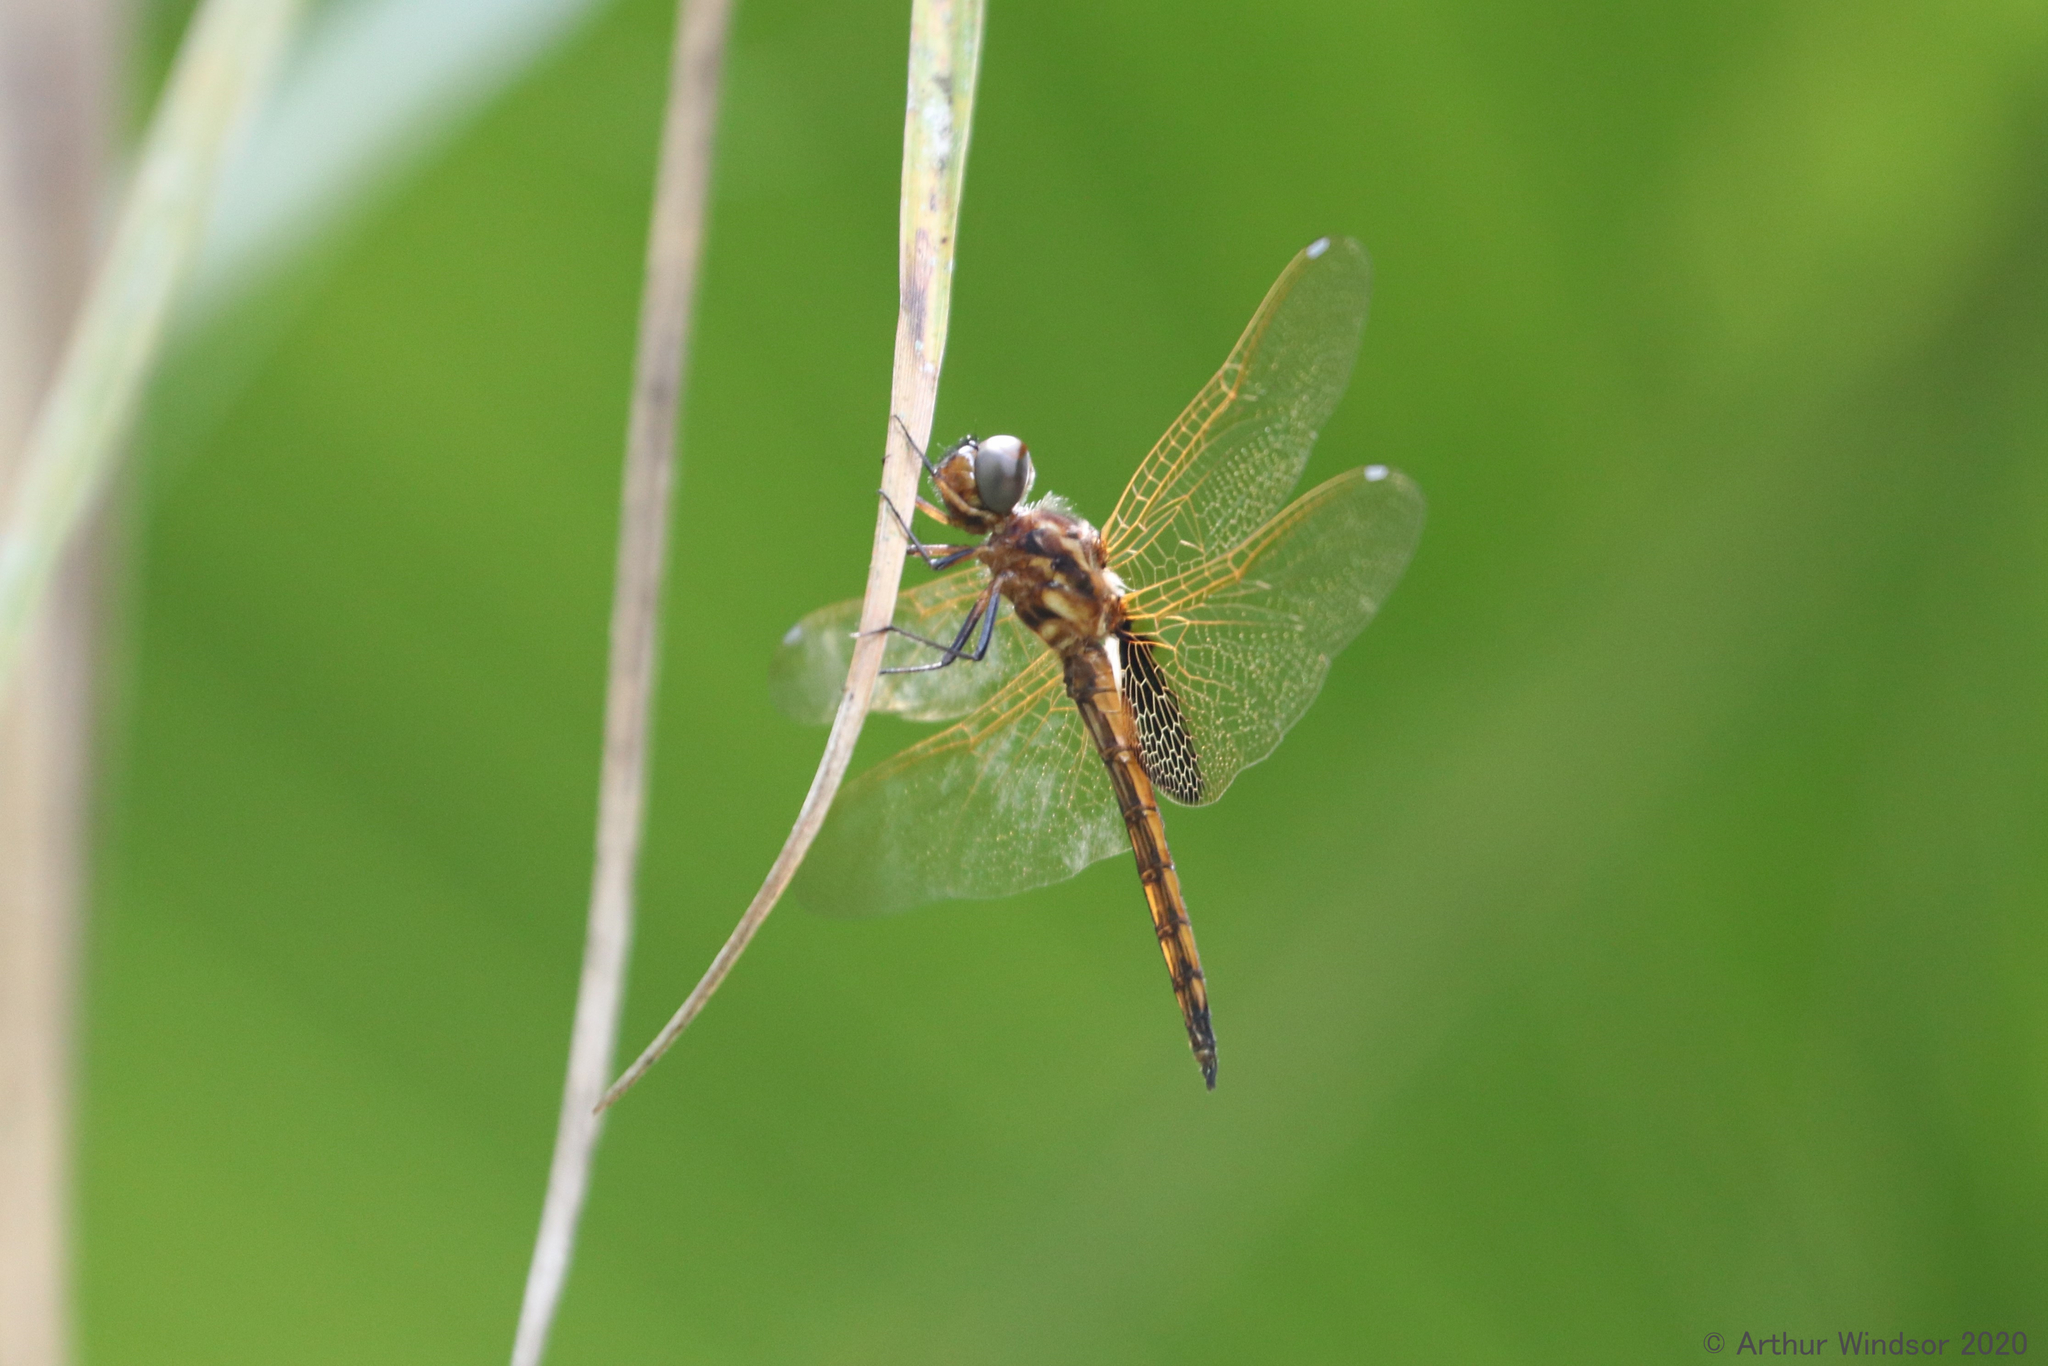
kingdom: Animalia
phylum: Arthropoda
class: Insecta
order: Odonata
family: Libellulidae
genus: Miathyria
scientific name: Miathyria marcella
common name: Hyacinth glider
